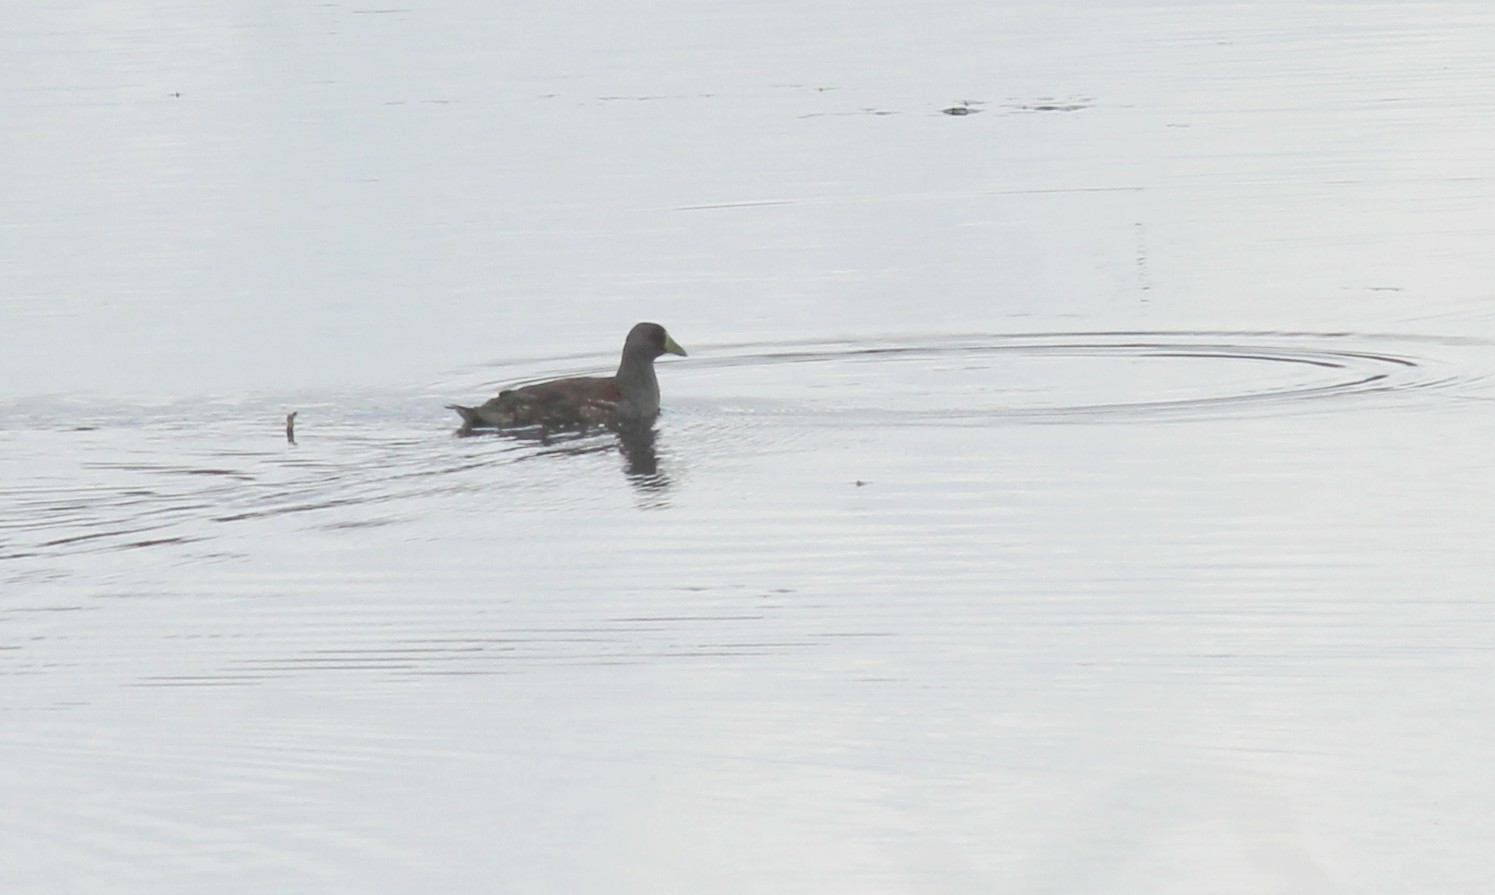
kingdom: Animalia
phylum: Chordata
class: Aves
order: Gruiformes
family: Rallidae
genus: Gallinula
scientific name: Gallinula melanops
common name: Spot-flanked gallinule
